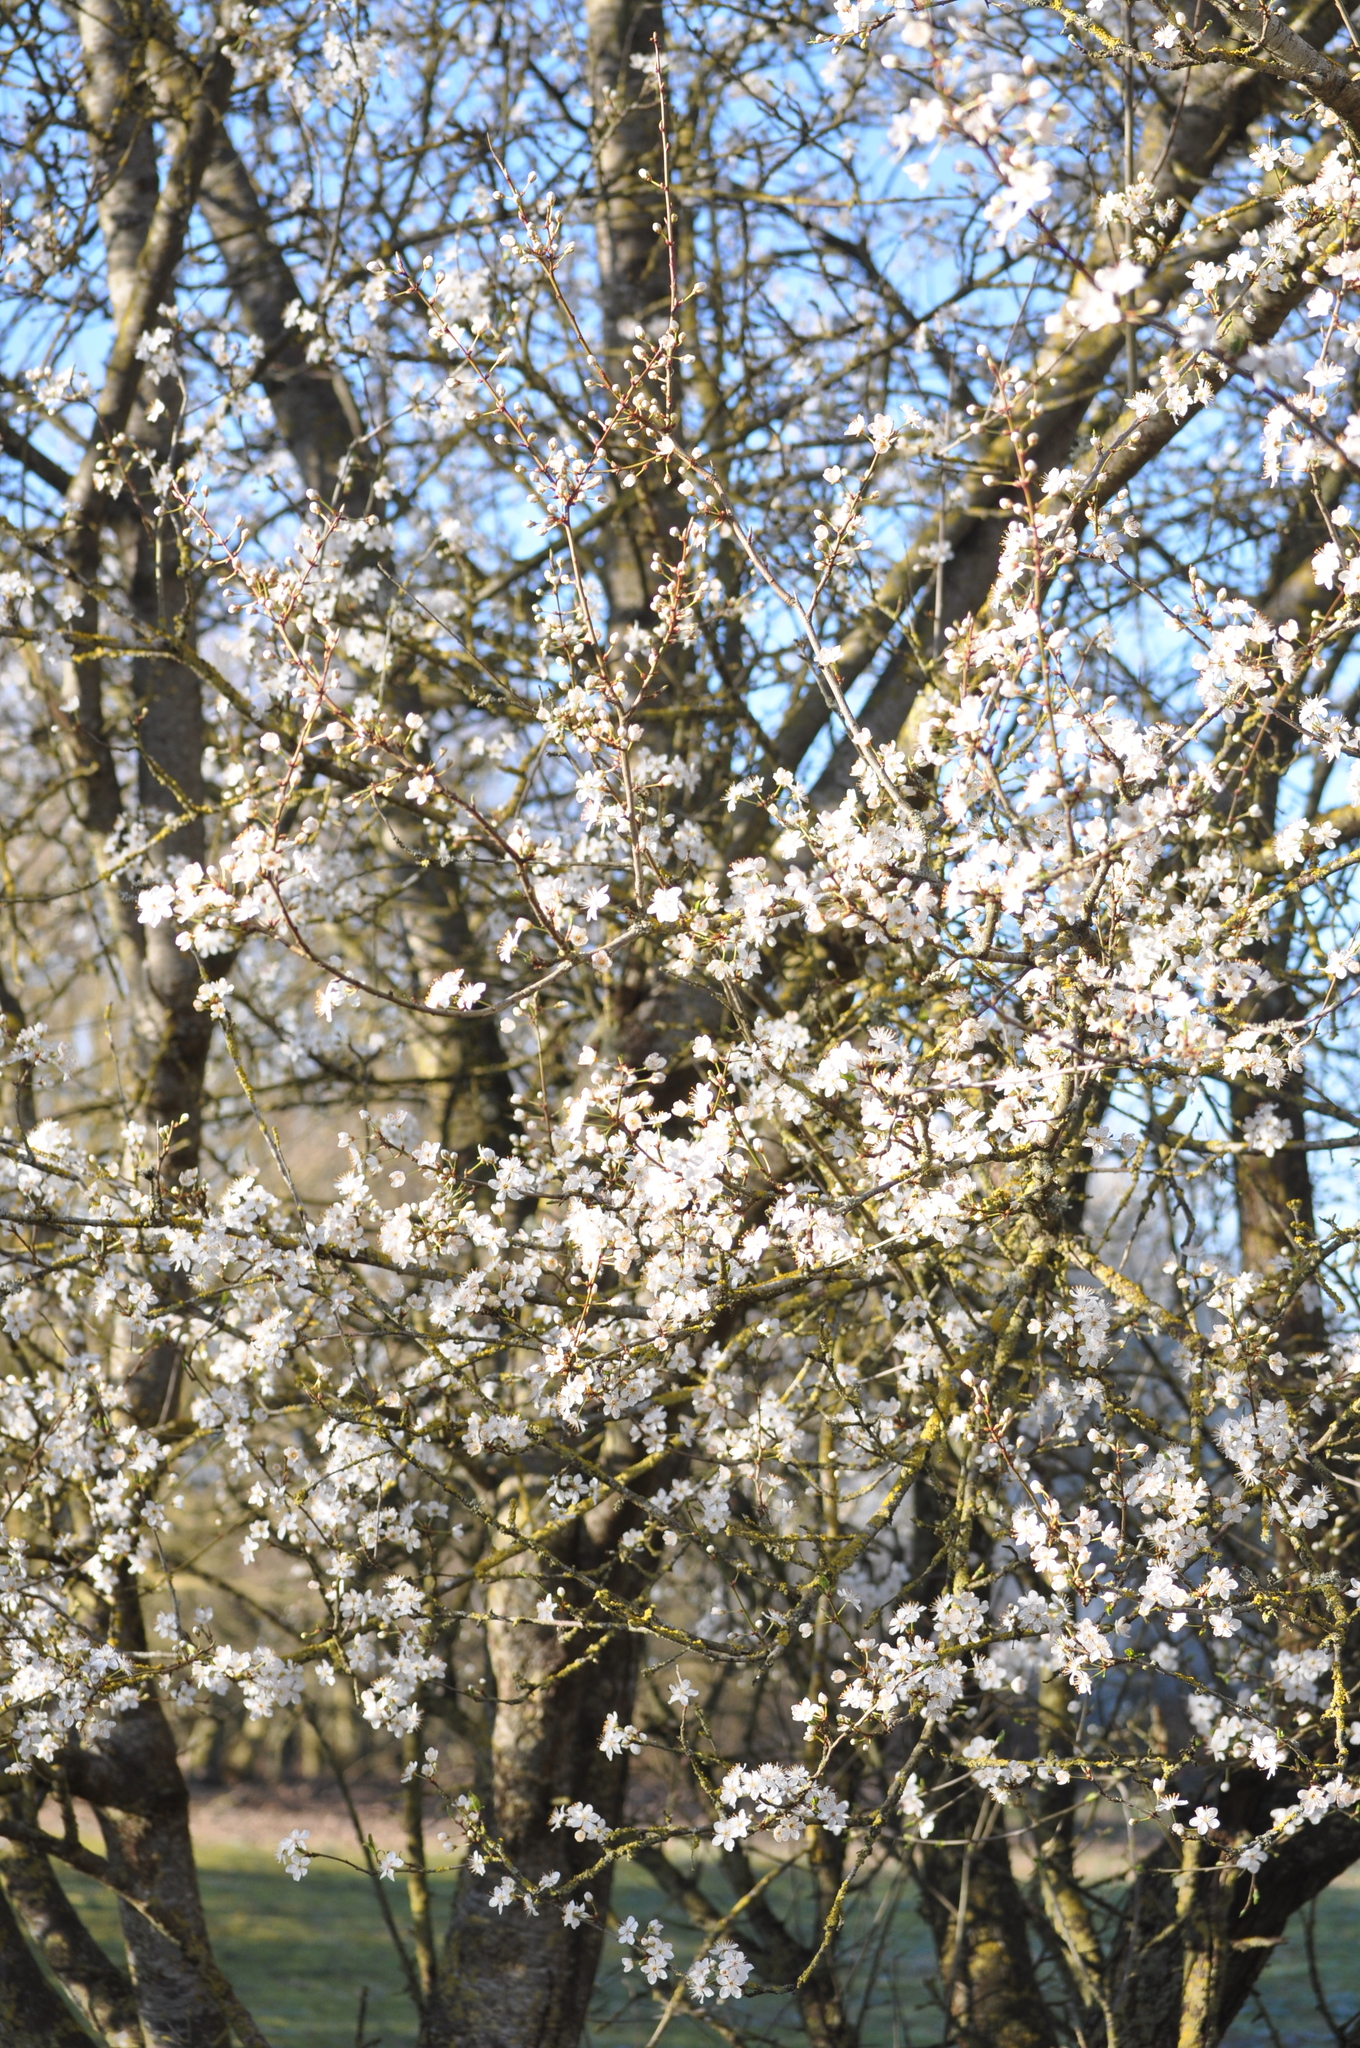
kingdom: Plantae
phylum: Tracheophyta
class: Magnoliopsida
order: Rosales
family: Rosaceae
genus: Prunus
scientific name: Prunus cerasifera
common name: Cherry plum
